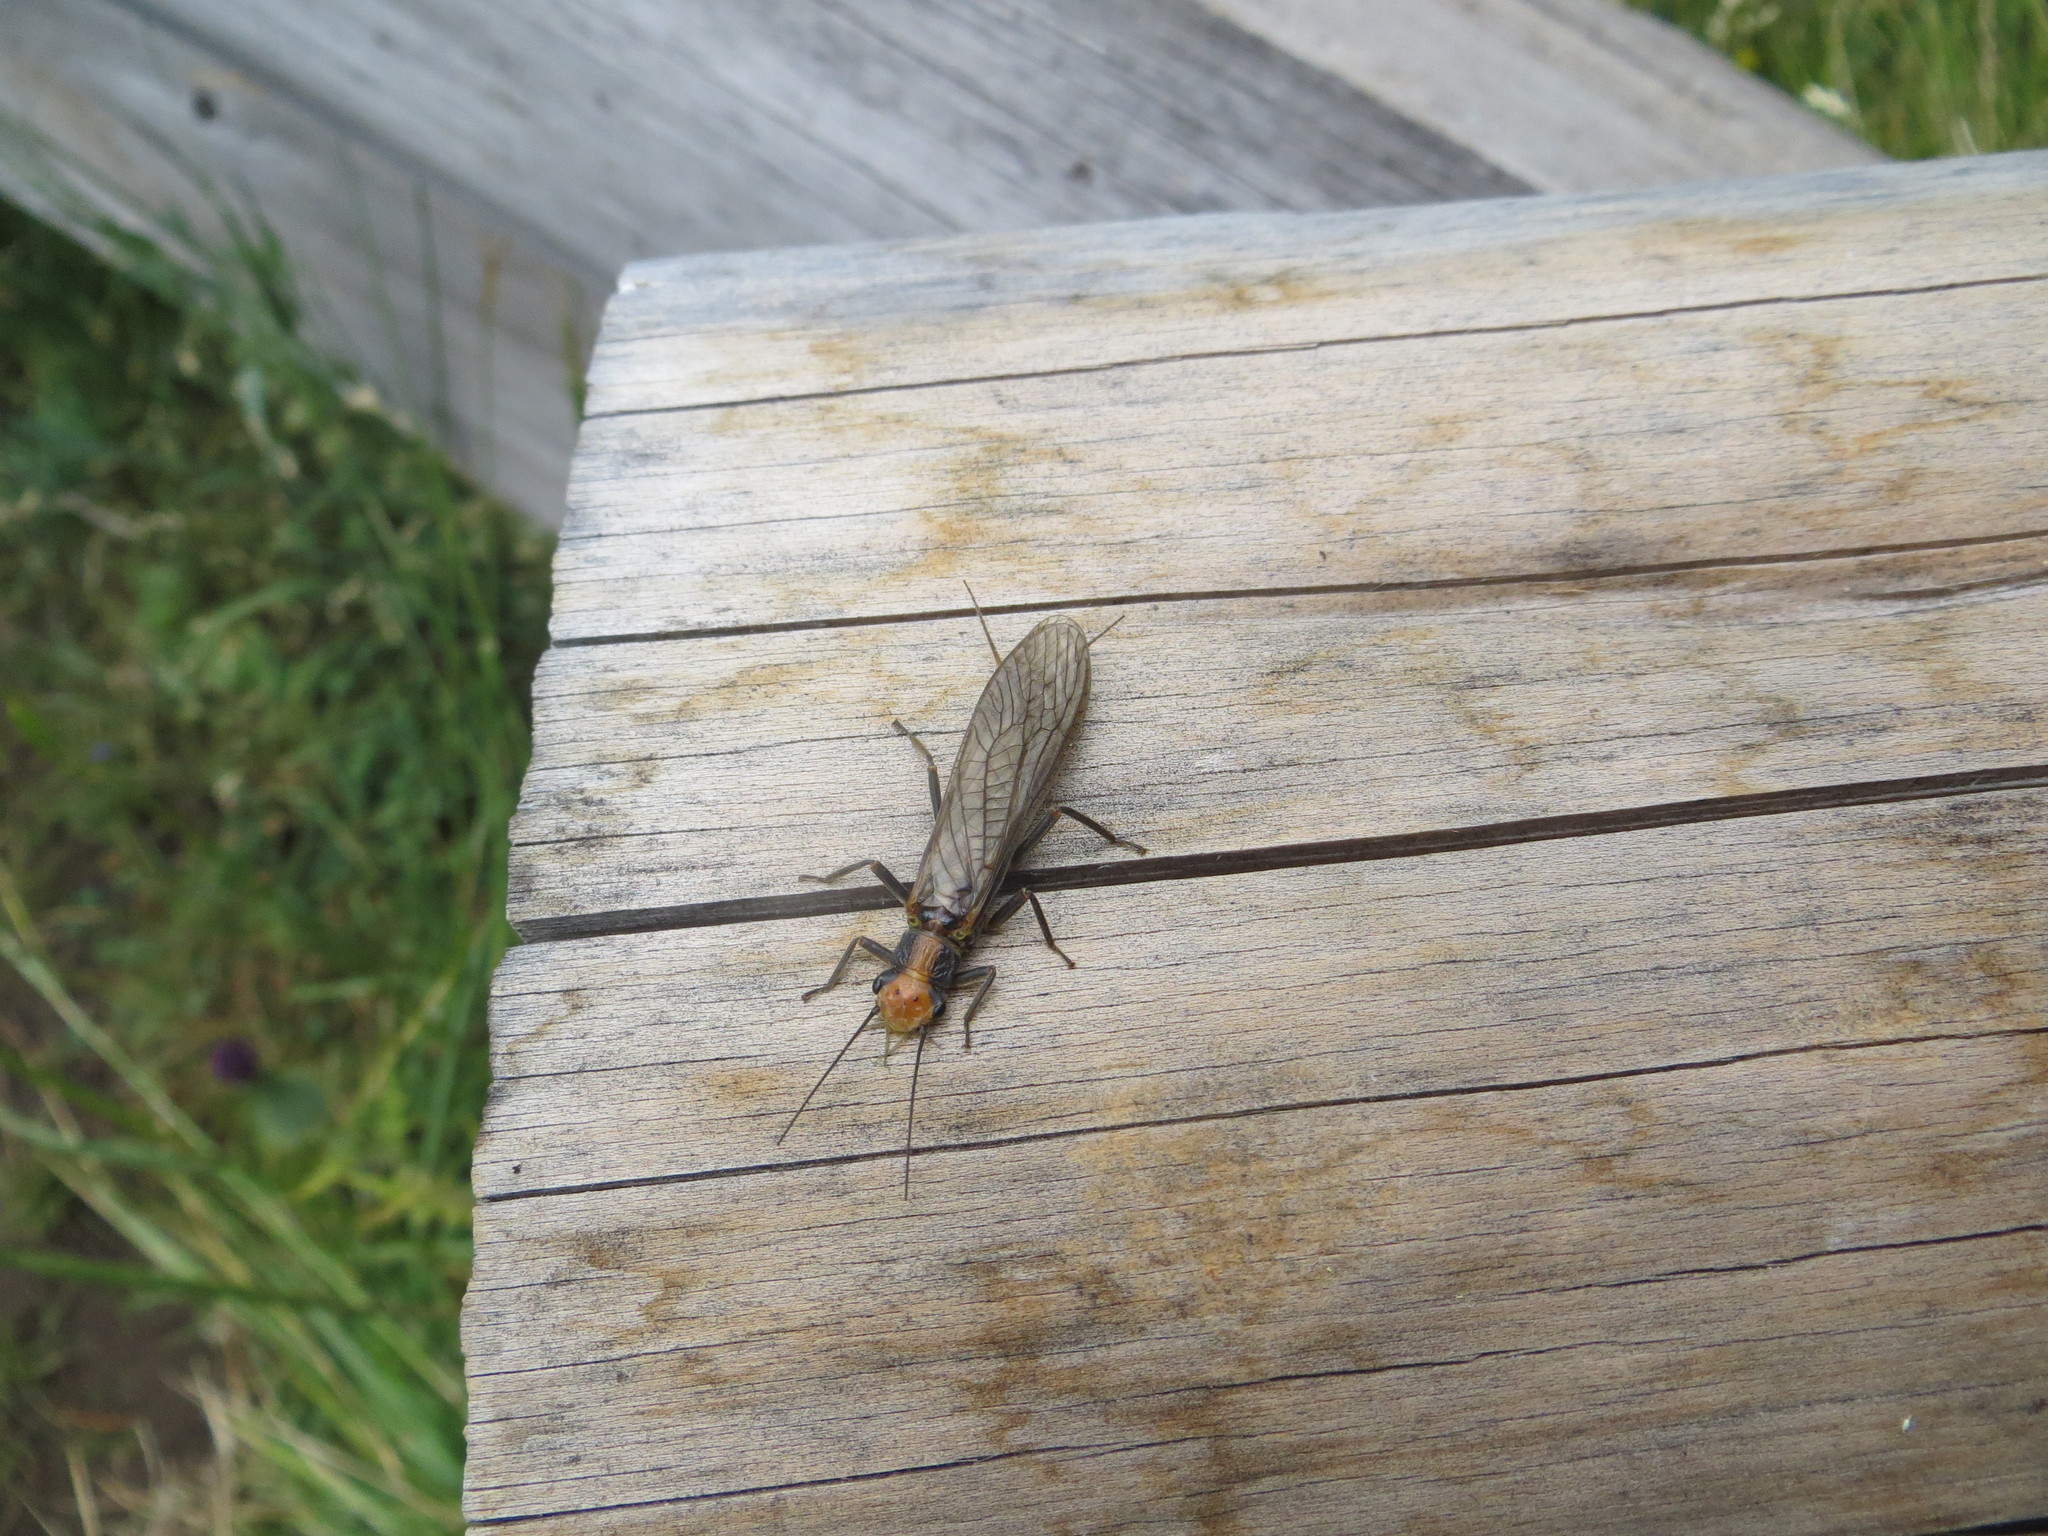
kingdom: Animalia
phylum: Arthropoda
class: Insecta
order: Plecoptera
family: Perlidae
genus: Hesperoperla
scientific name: Hesperoperla hoguei
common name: Banded stone
